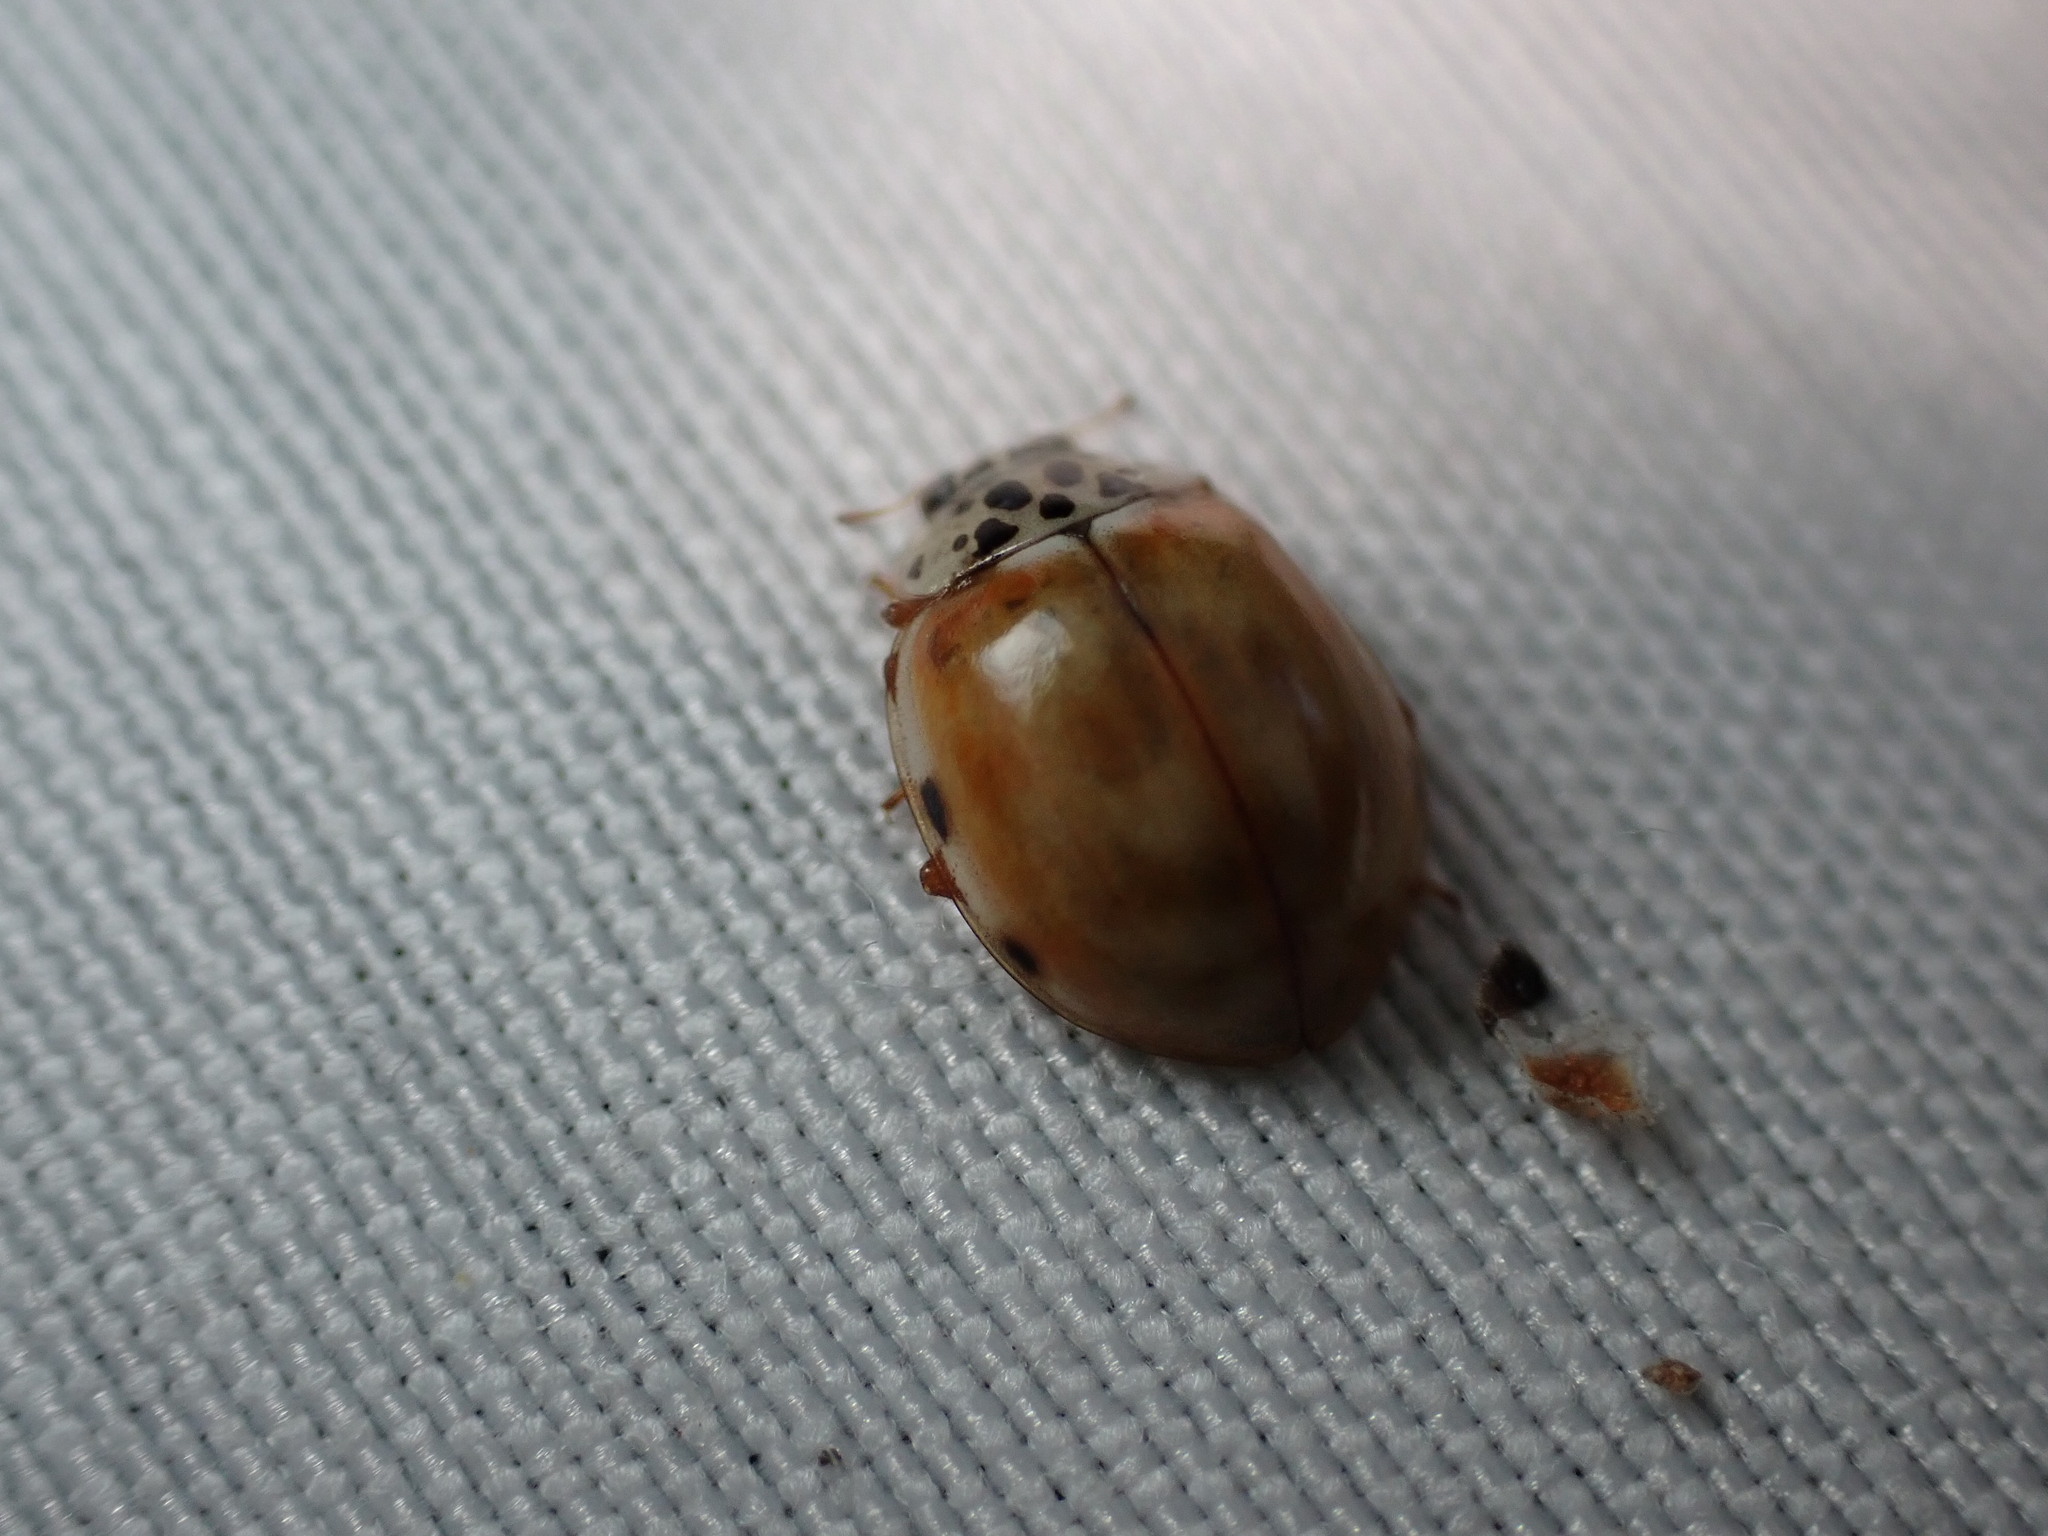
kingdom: Animalia
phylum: Arthropoda
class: Insecta
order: Coleoptera
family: Coccinellidae
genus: Harmonia
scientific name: Harmonia quadripunctata
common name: Cream-streaked ladybird
